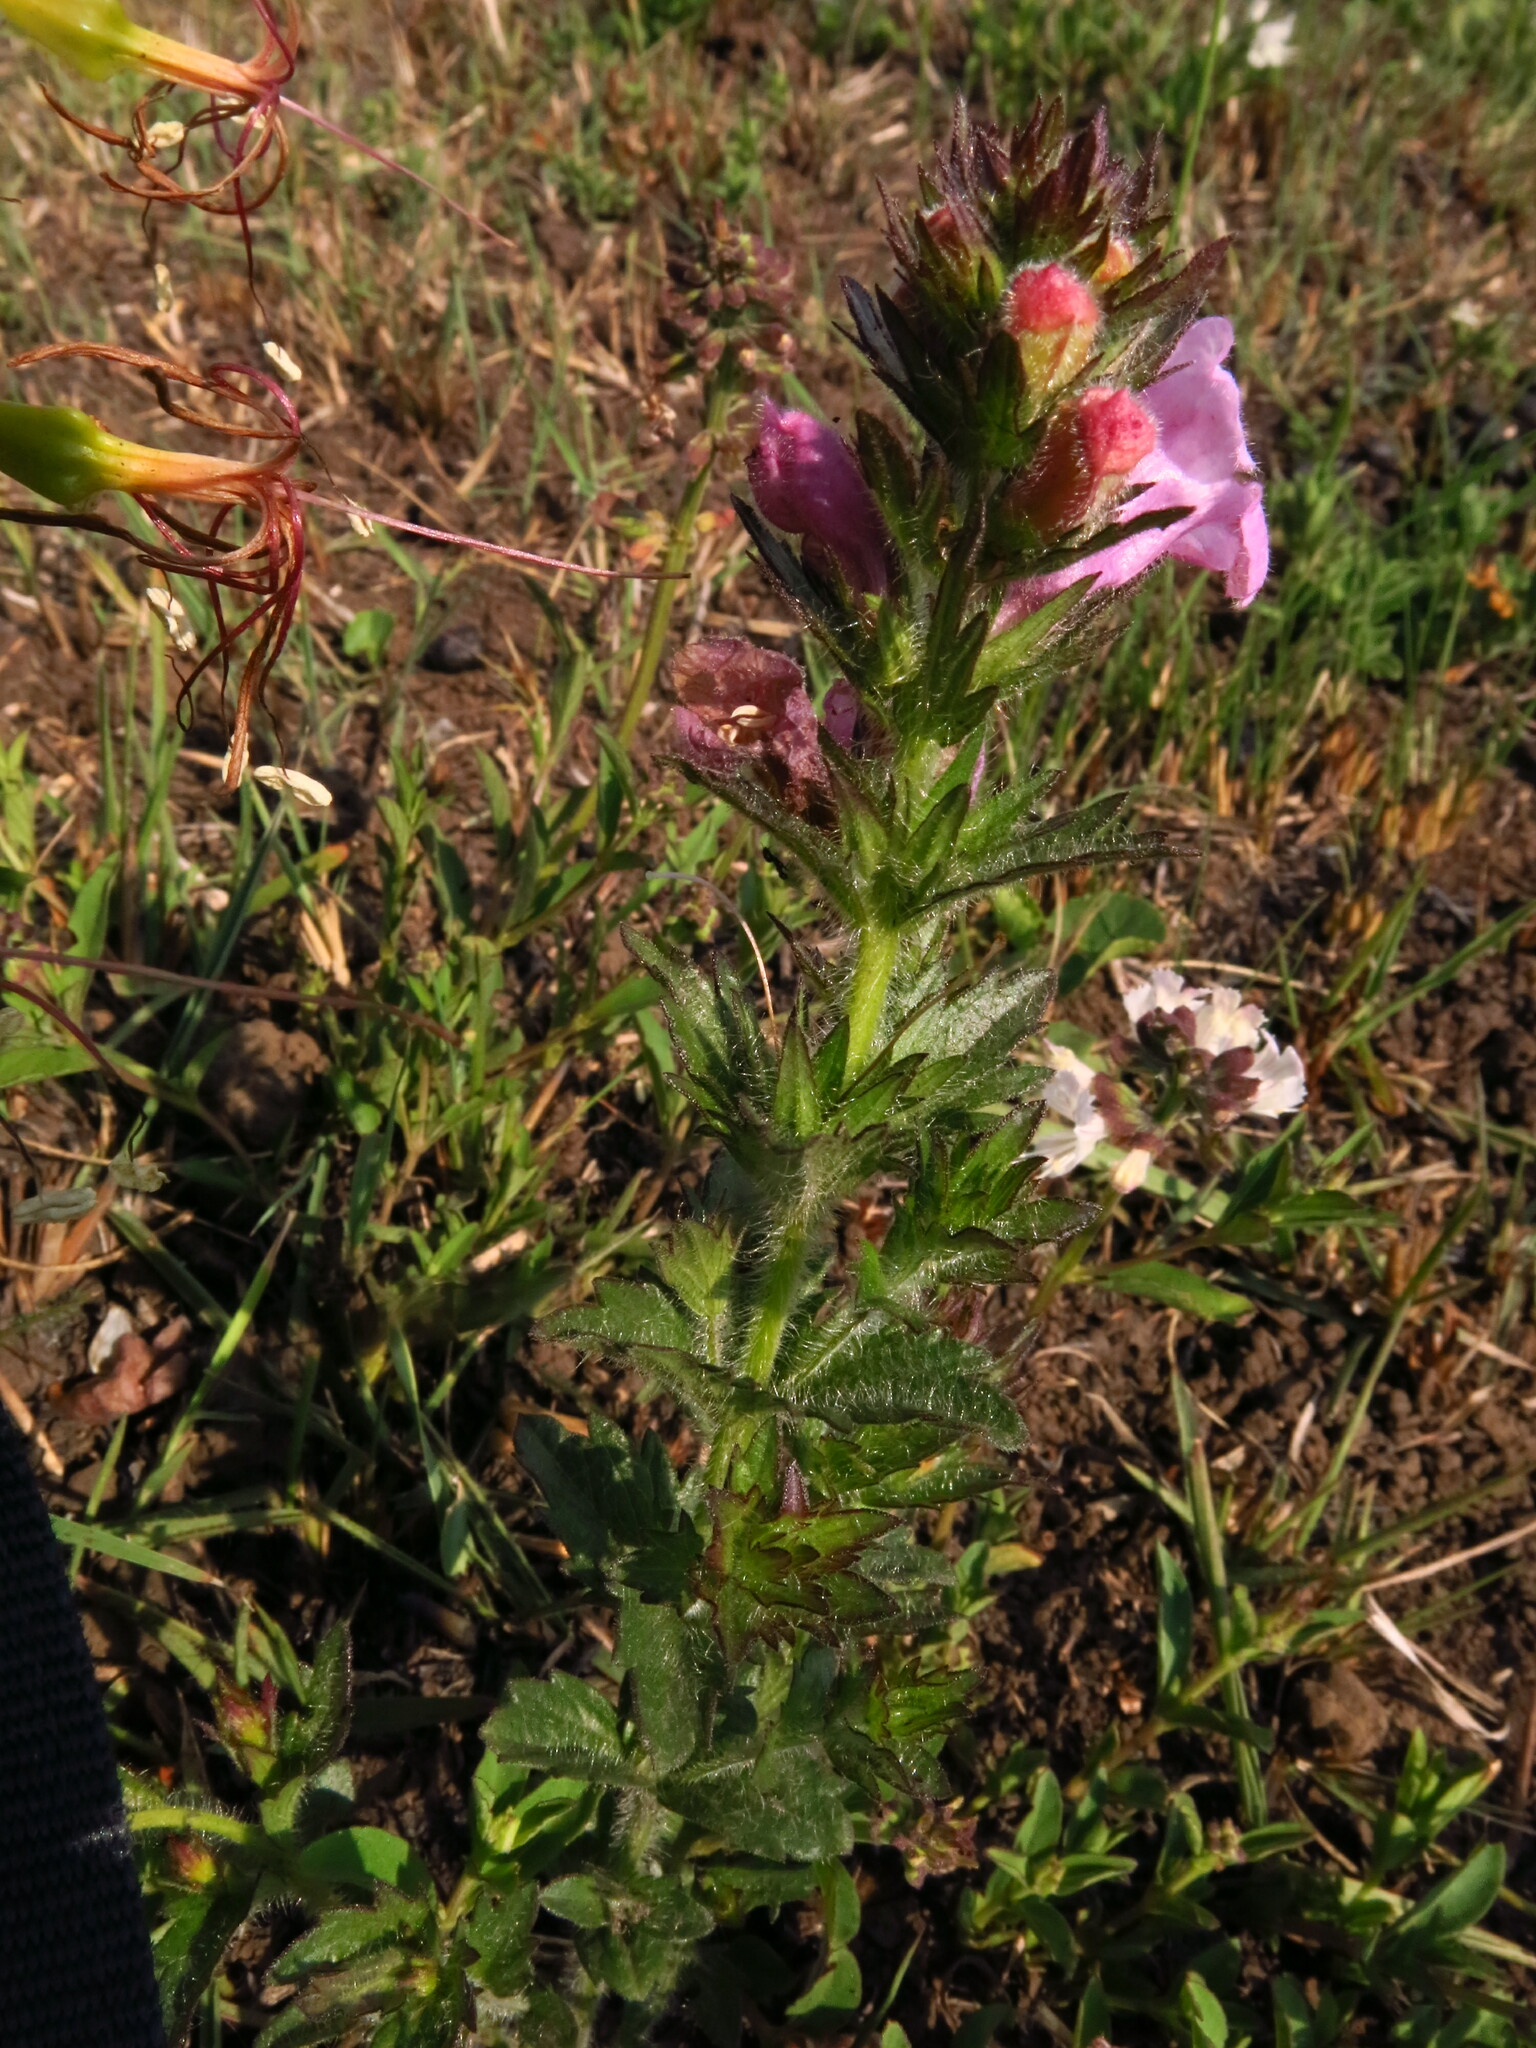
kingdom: Plantae
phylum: Tracheophyta
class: Magnoliopsida
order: Lamiales
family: Orobanchaceae
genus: Graderia
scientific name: Graderia scabra
